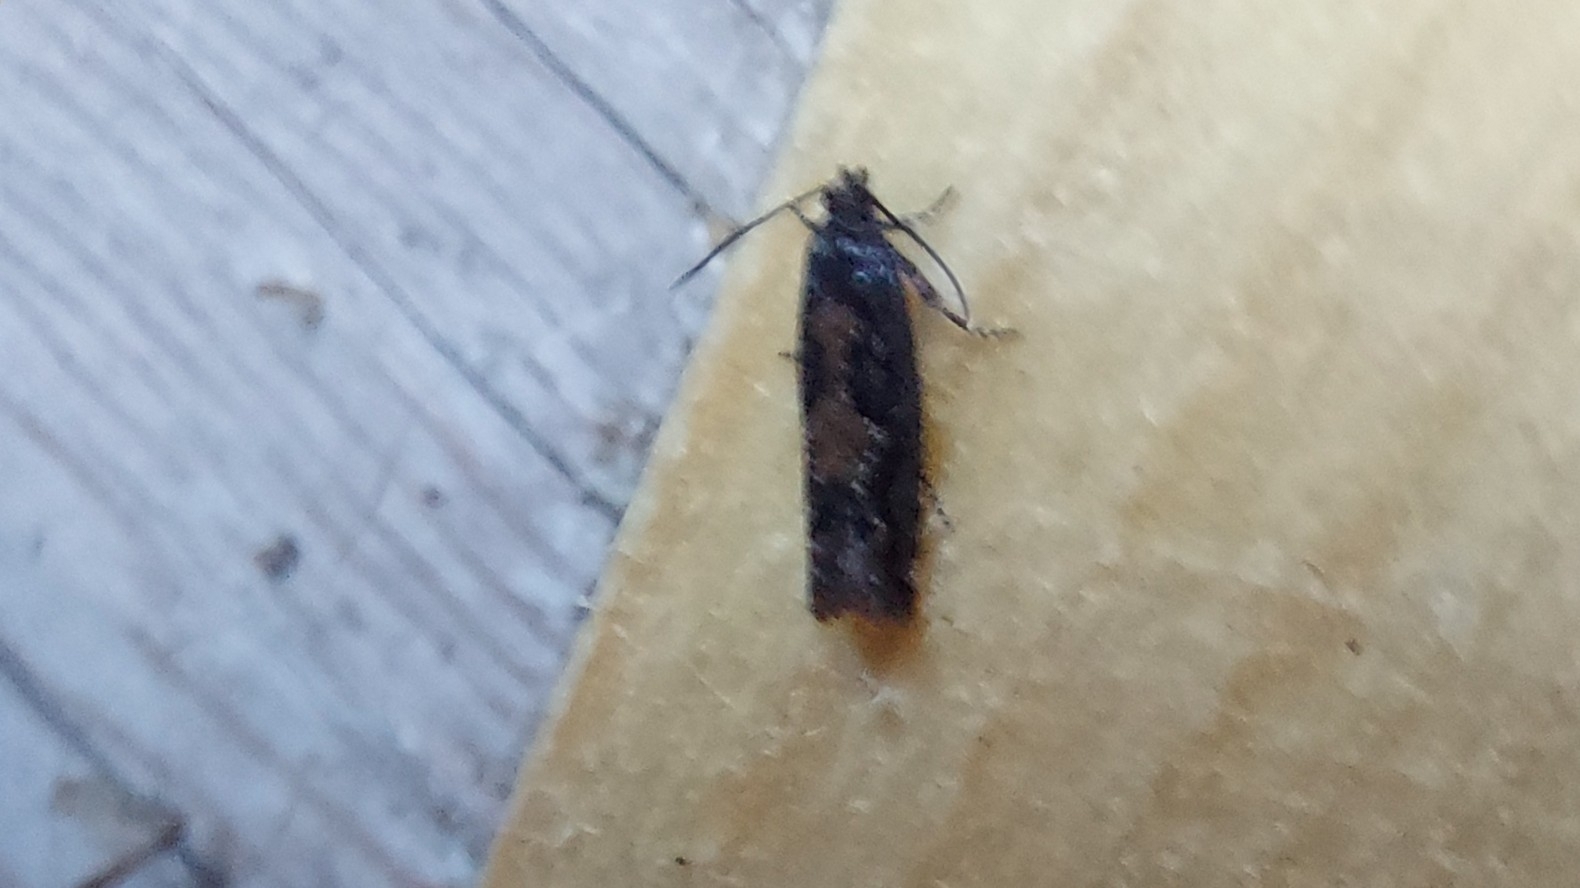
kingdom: Animalia
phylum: Arthropoda
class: Insecta
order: Lepidoptera
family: Tortricidae
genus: Zeiraphera
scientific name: Zeiraphera isertana
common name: Cock's-head bell
